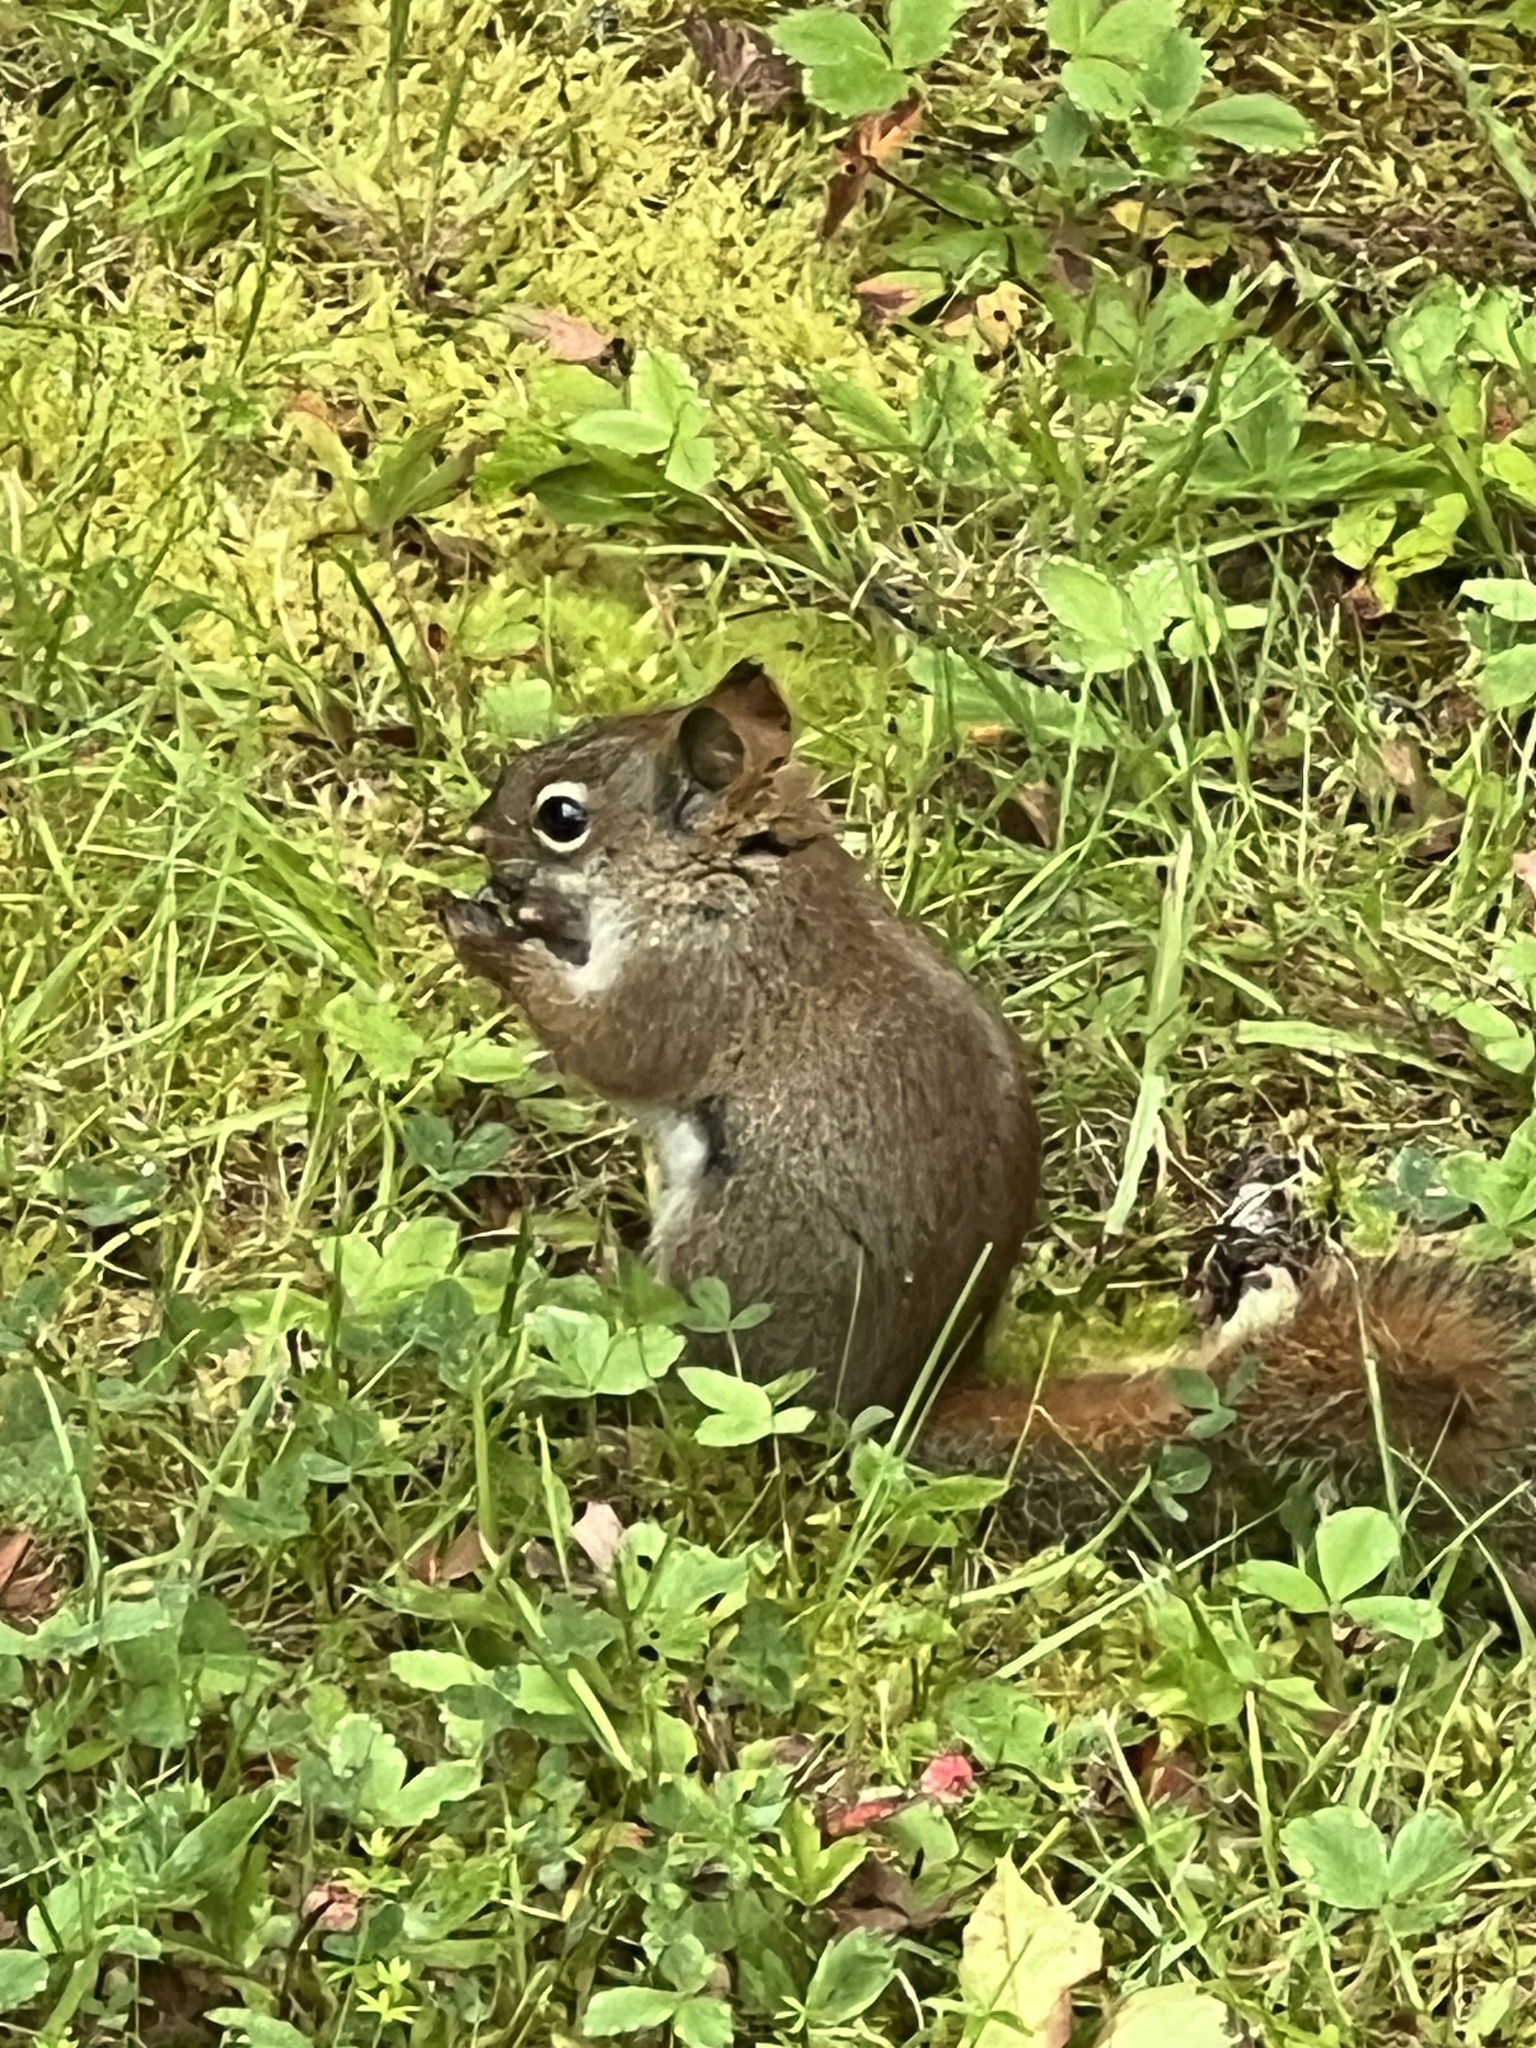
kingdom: Animalia
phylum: Chordata
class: Mammalia
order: Rodentia
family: Sciuridae
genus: Tamiasciurus
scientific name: Tamiasciurus hudsonicus
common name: Red squirrel
